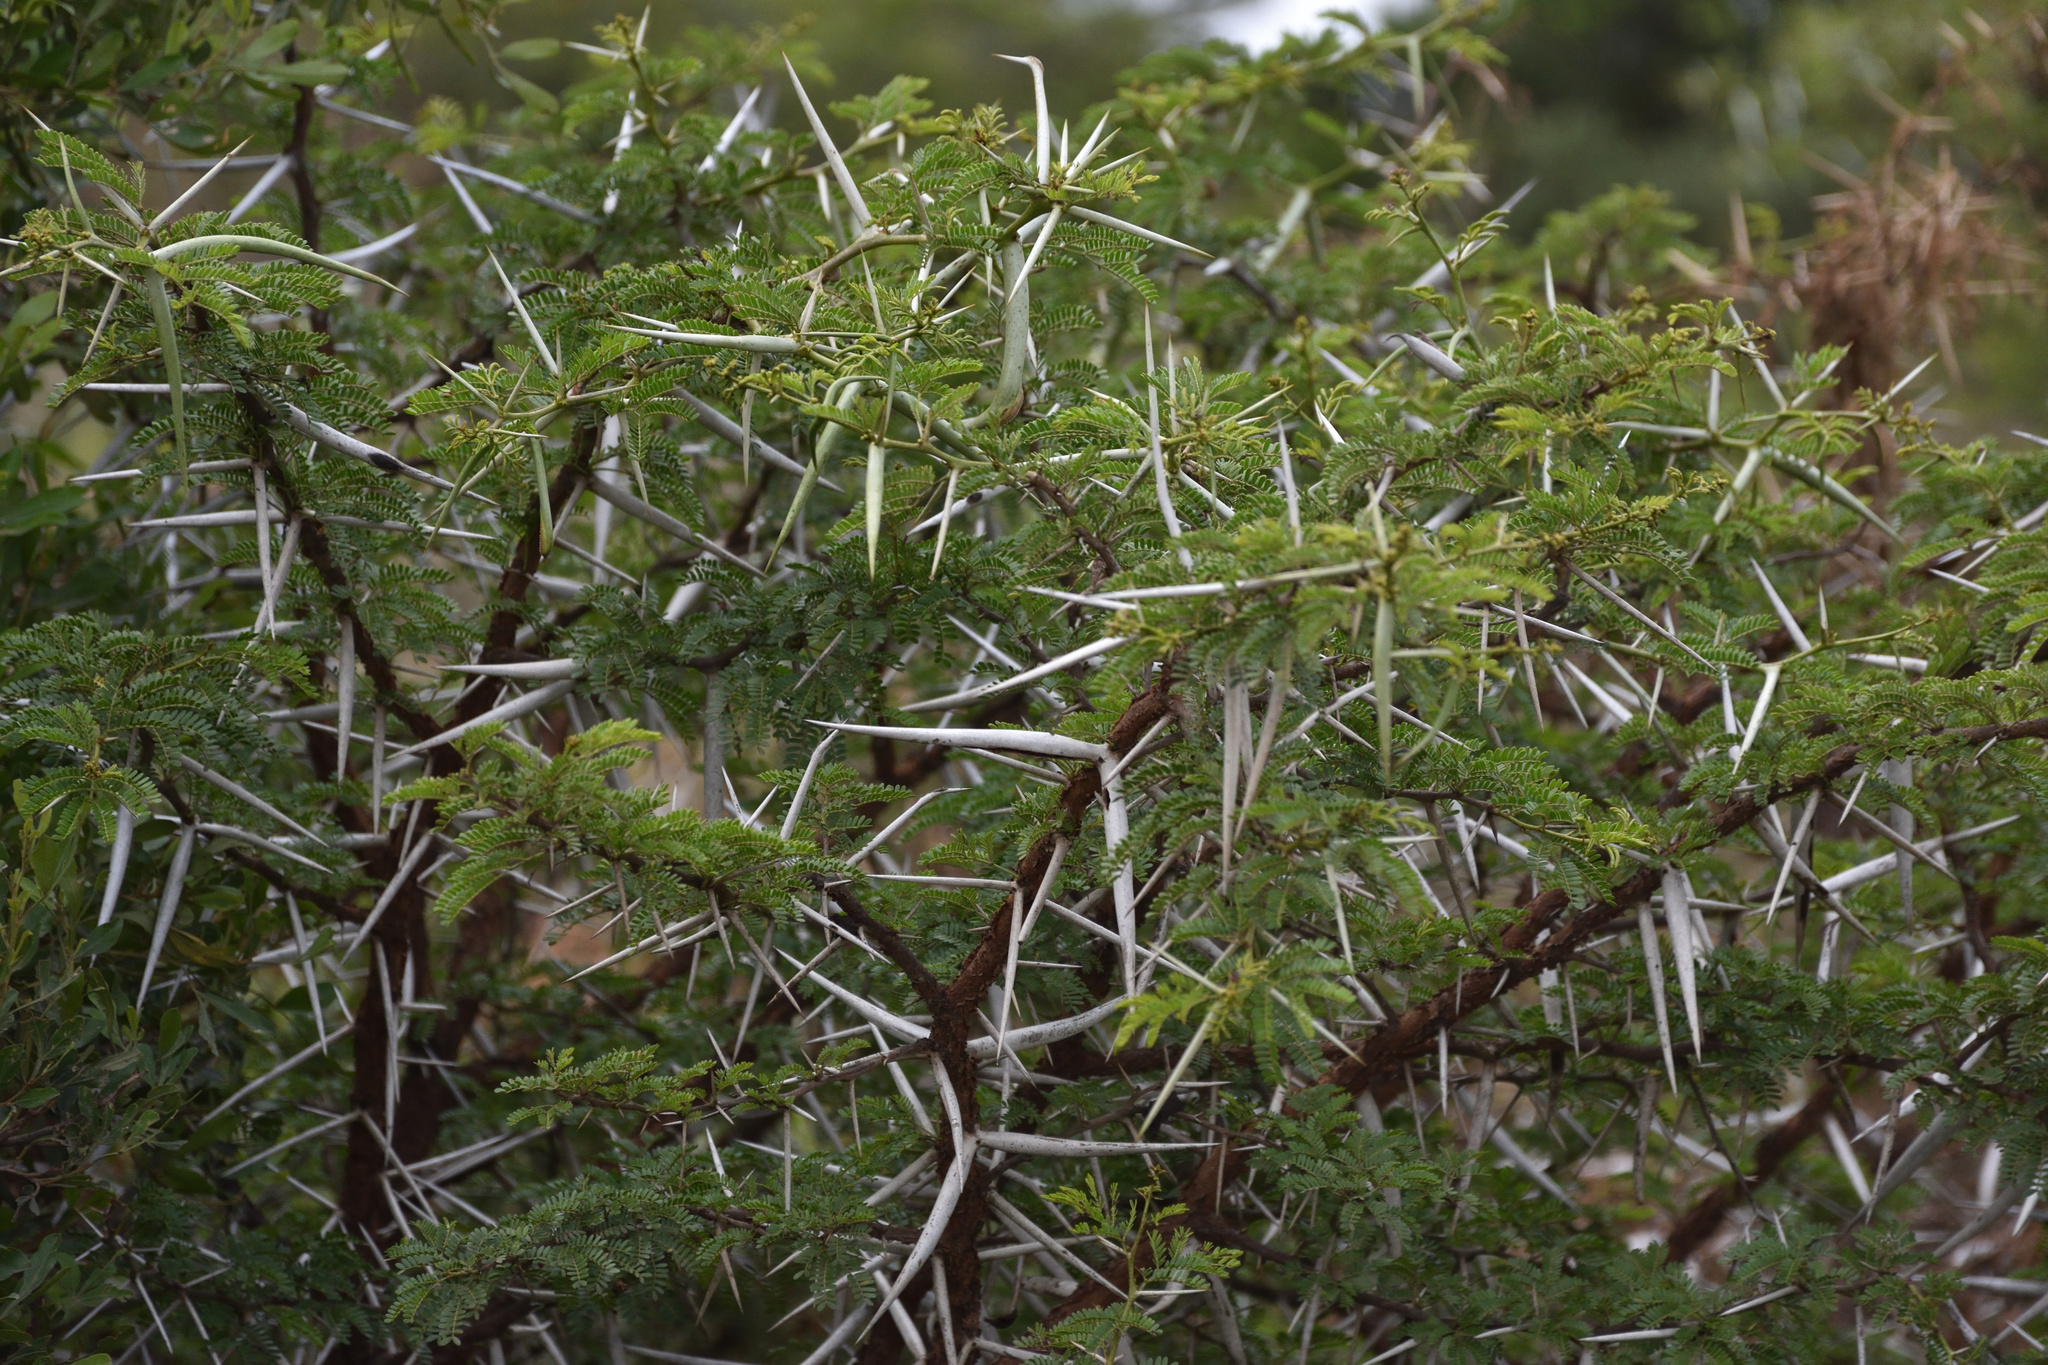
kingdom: Plantae
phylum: Tracheophyta
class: Magnoliopsida
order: Fabales
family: Fabaceae
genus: Vachellia
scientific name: Vachellia karroo
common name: Sweet thorn
